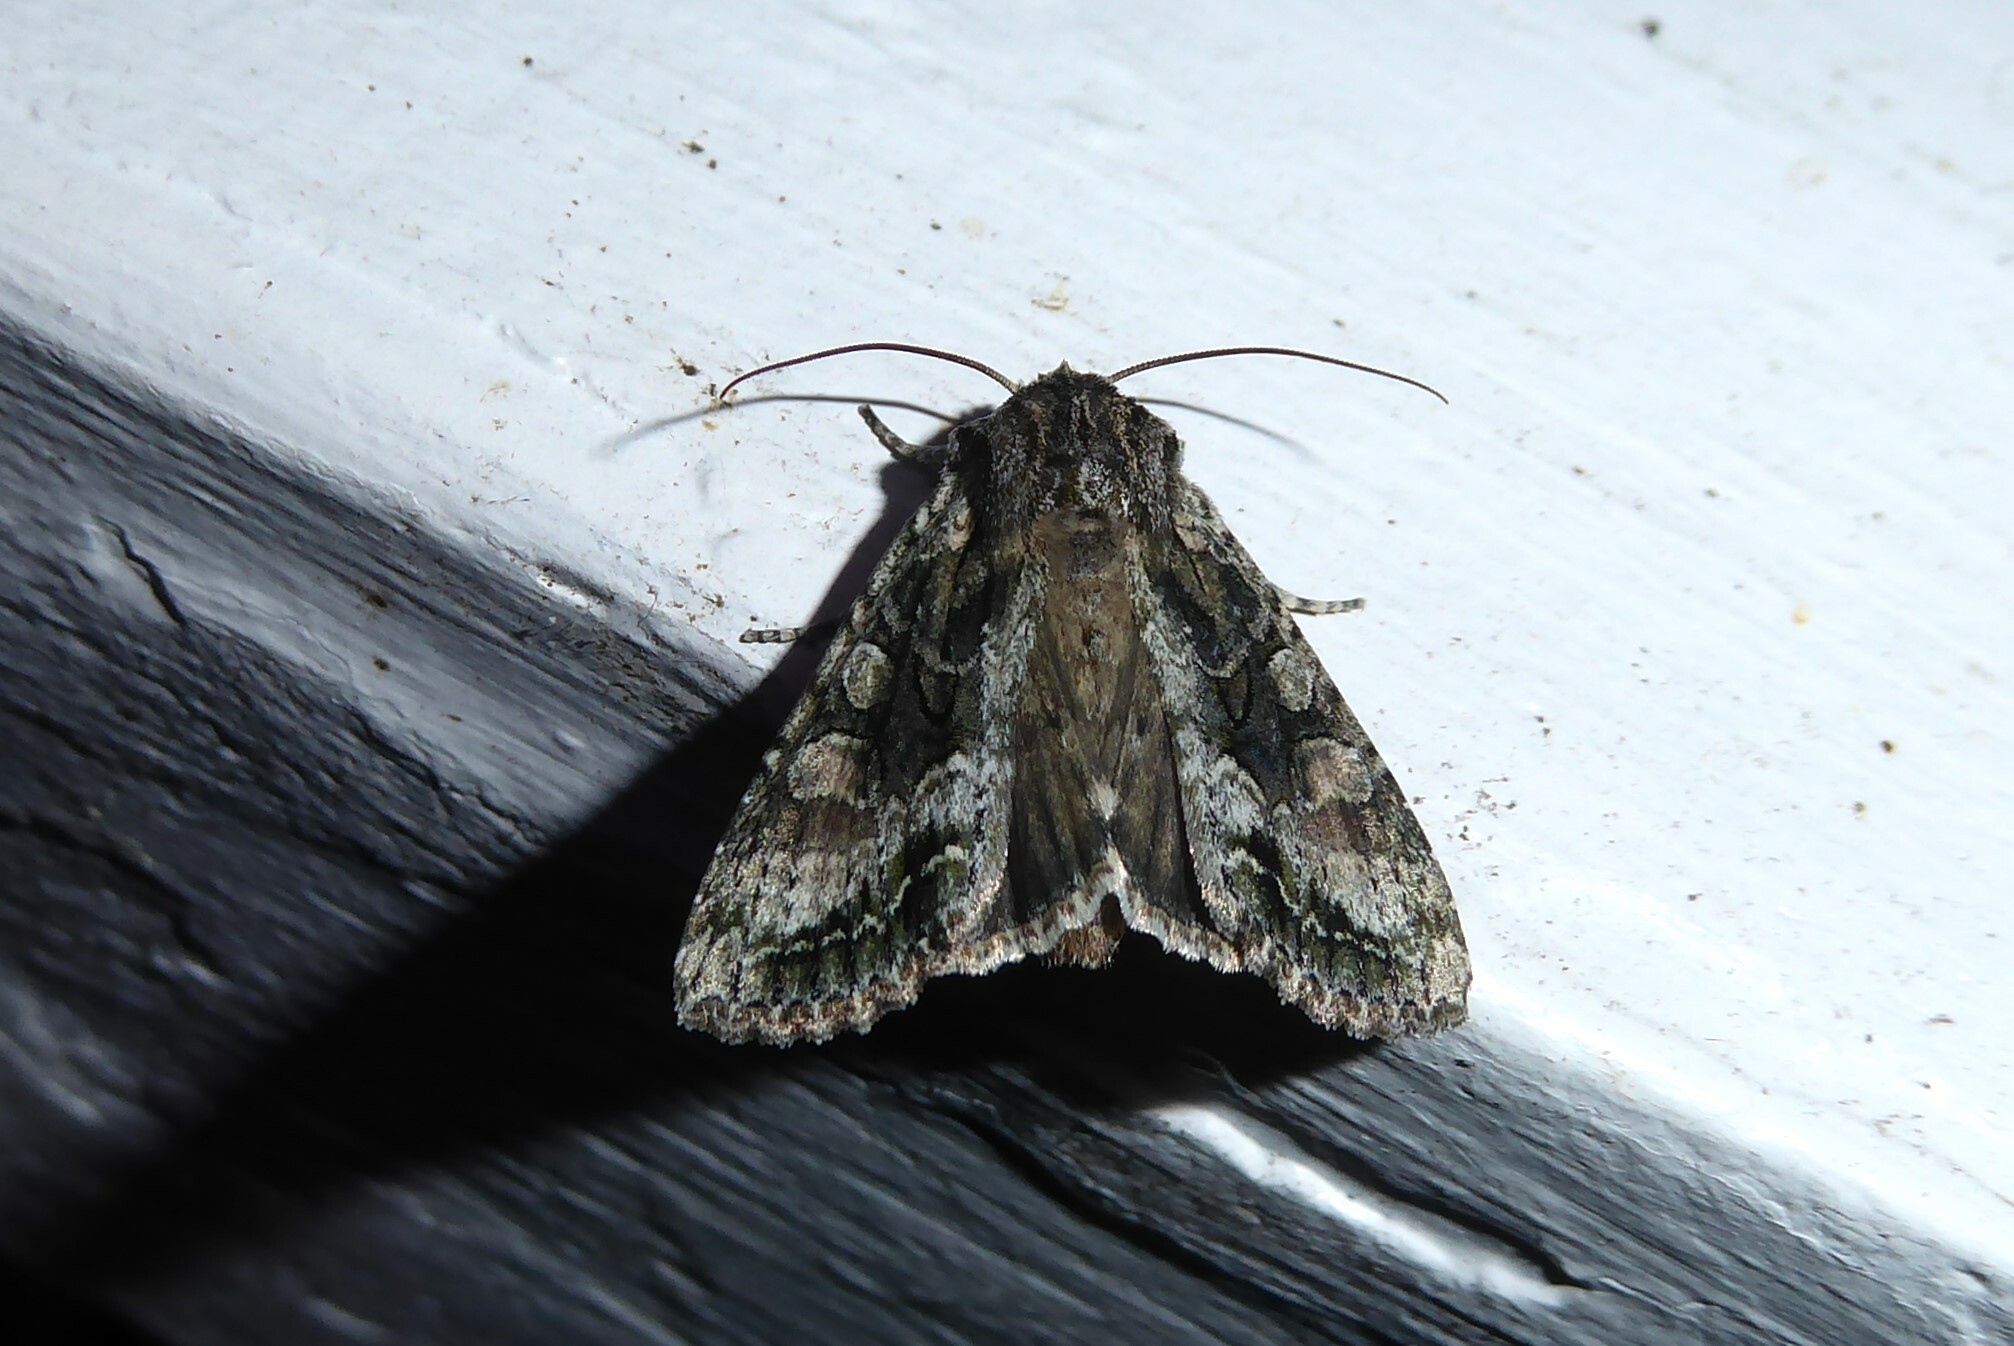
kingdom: Animalia
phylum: Arthropoda
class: Insecta
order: Lepidoptera
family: Noctuidae
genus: Ichneutica
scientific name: Ichneutica mutans
